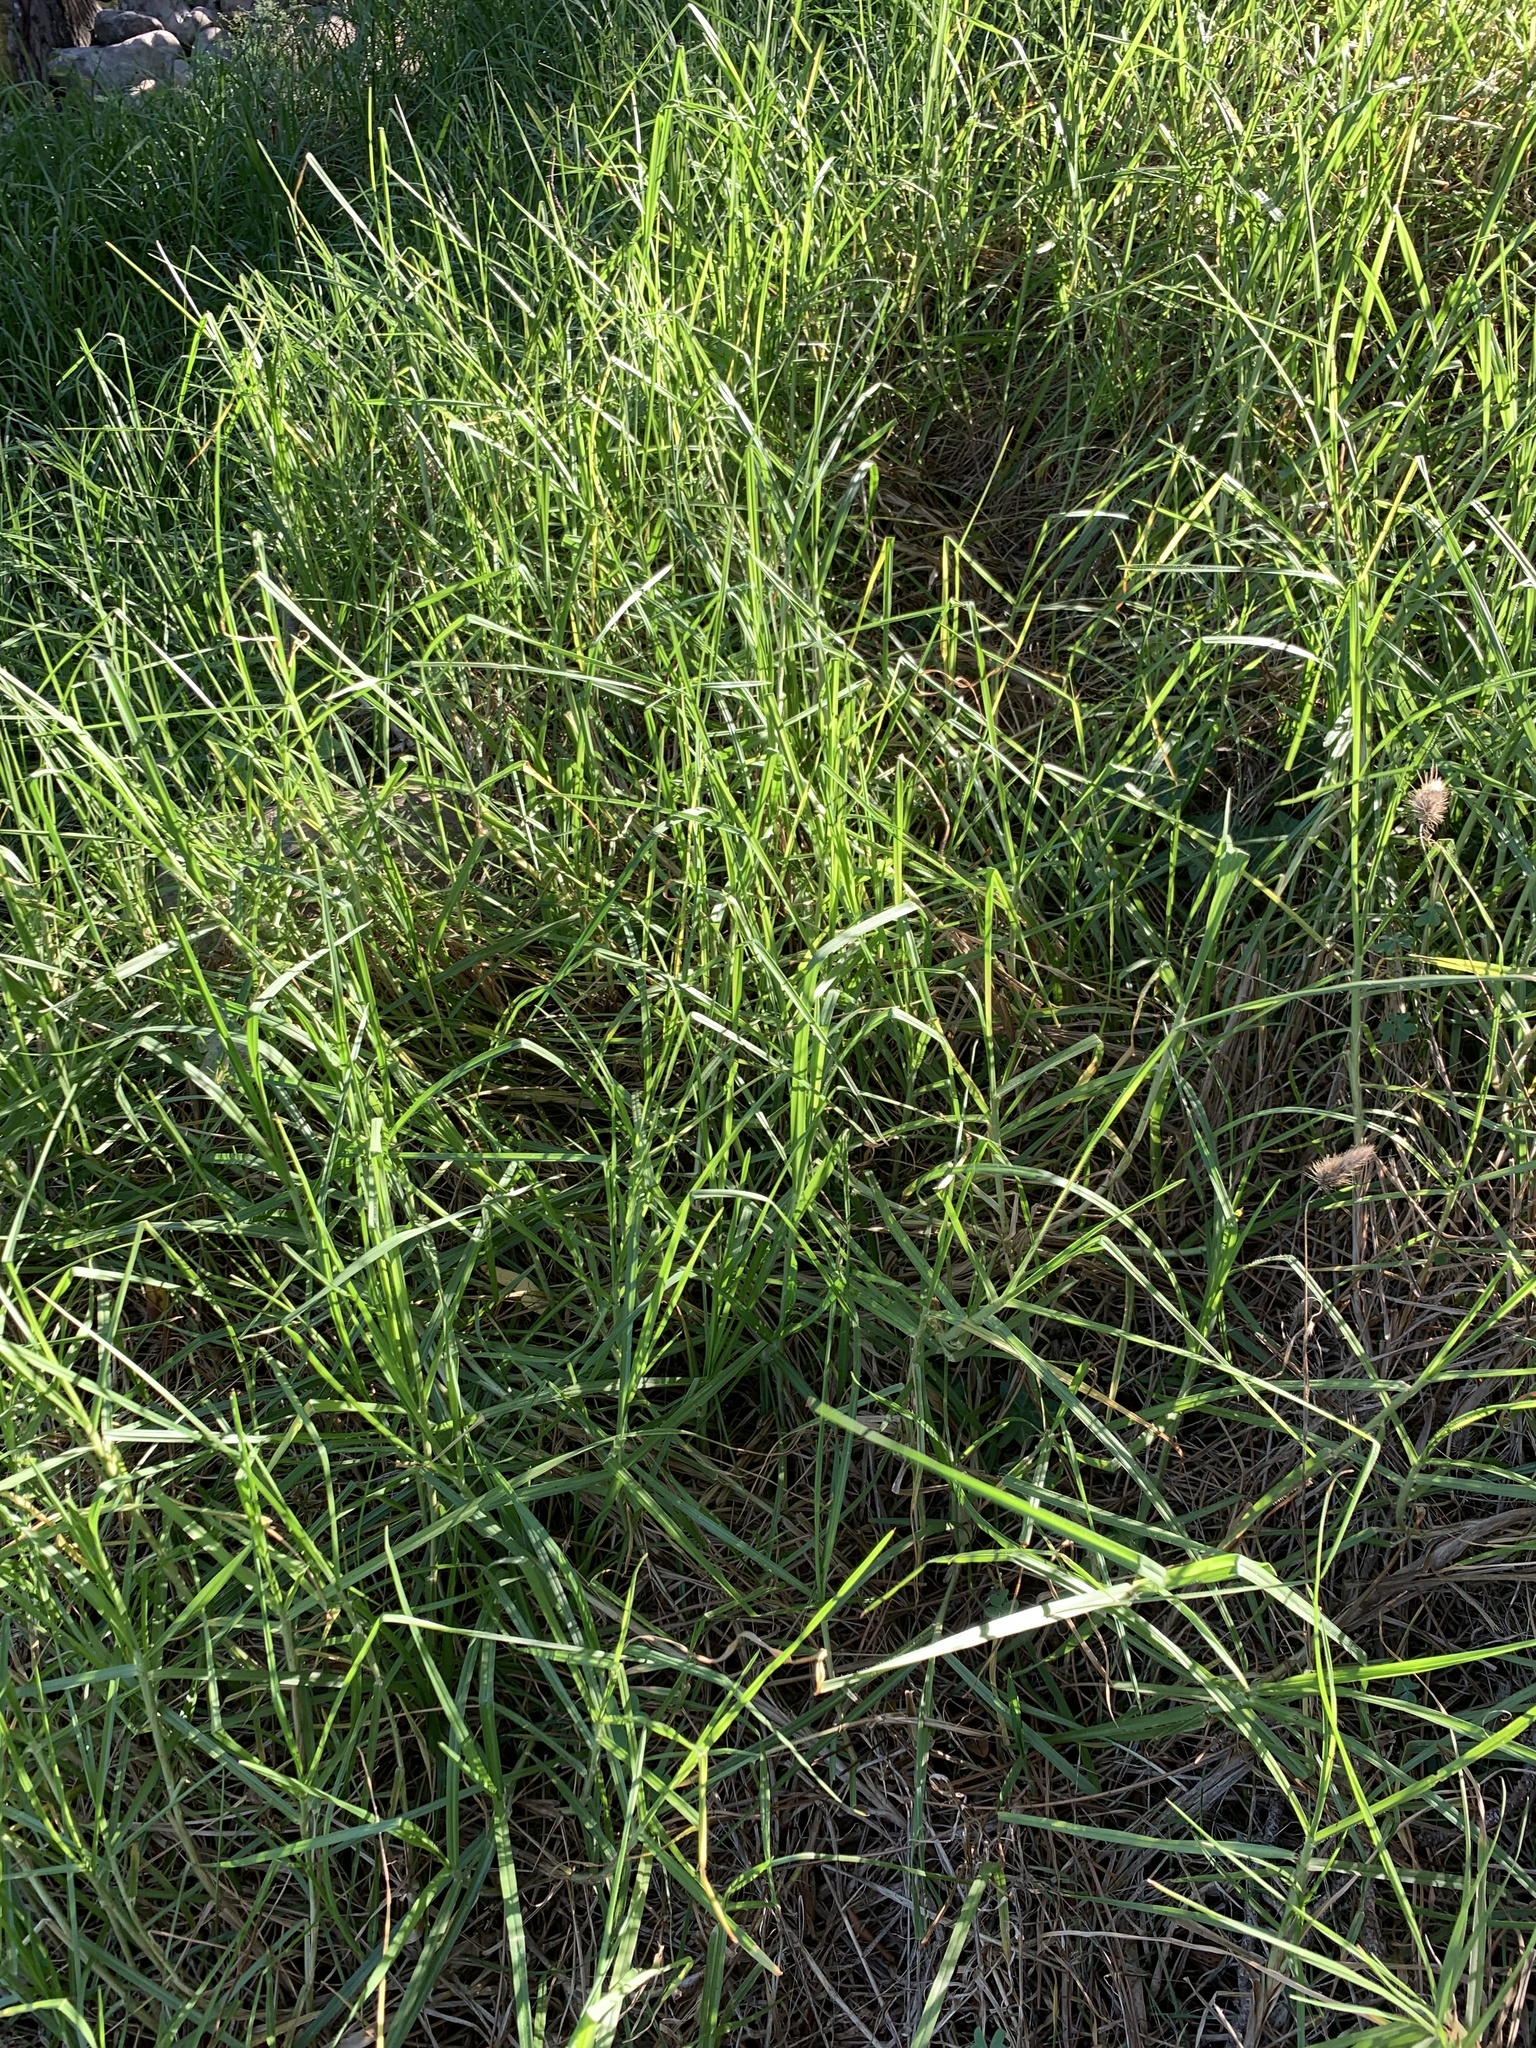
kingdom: Plantae
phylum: Tracheophyta
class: Liliopsida
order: Poales
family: Poaceae
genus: Cenchrus
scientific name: Cenchrus clandestinus
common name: Kikuyugrass
